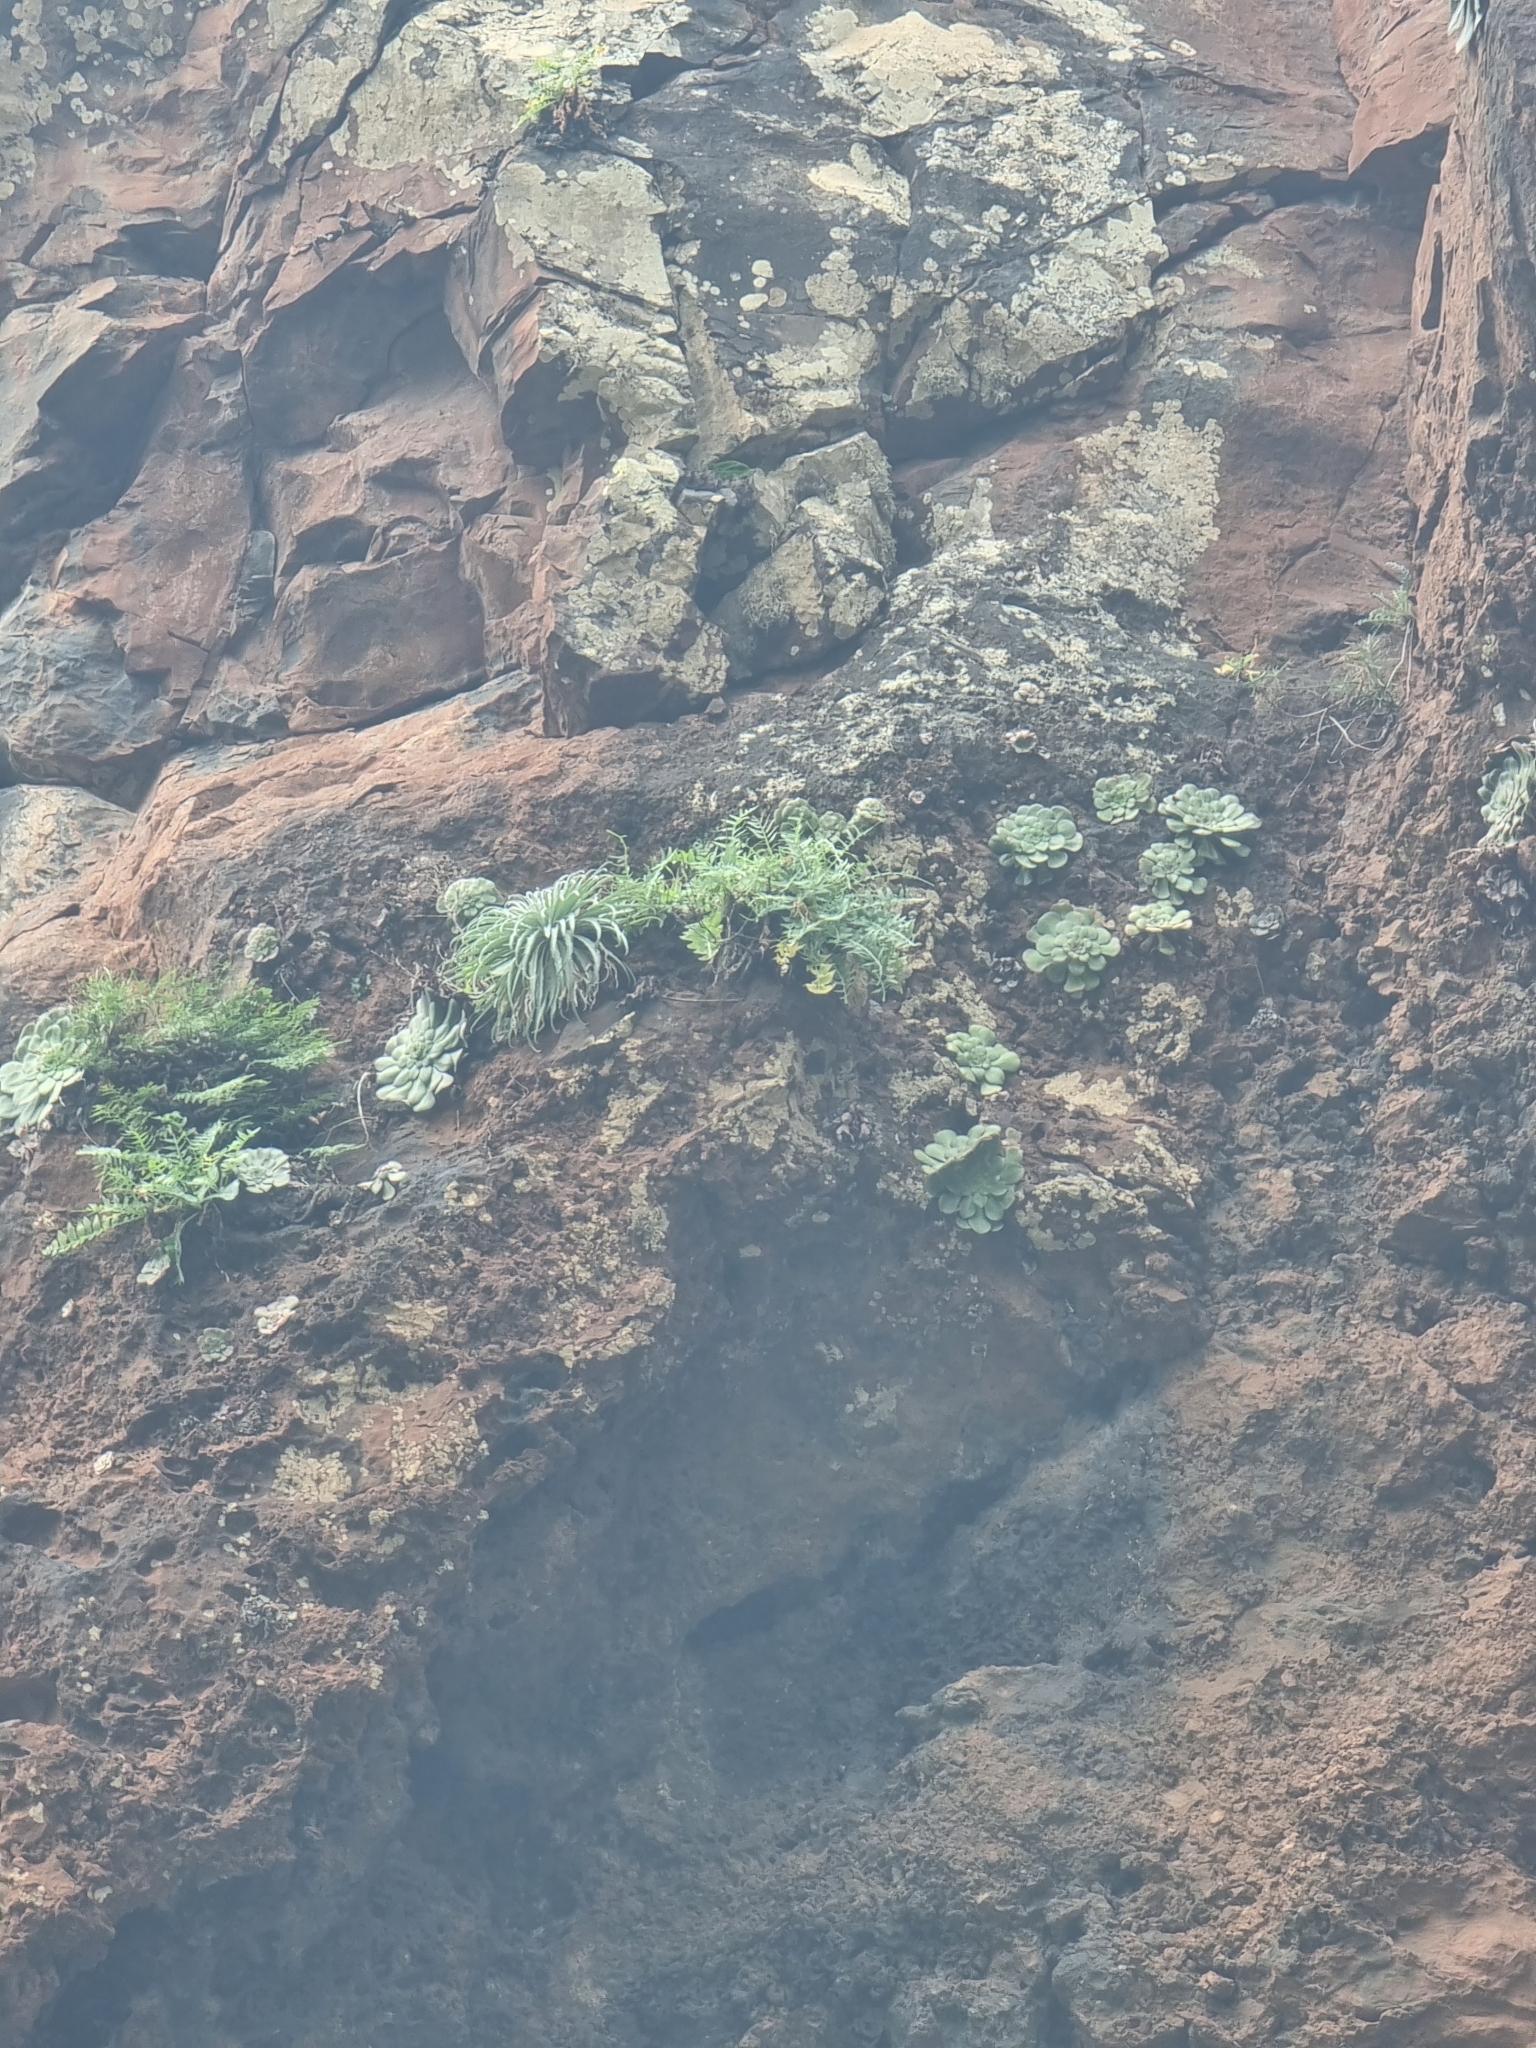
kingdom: Plantae
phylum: Tracheophyta
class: Magnoliopsida
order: Asterales
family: Asteraceae
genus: Sonchus
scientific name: Sonchus ustulatus
